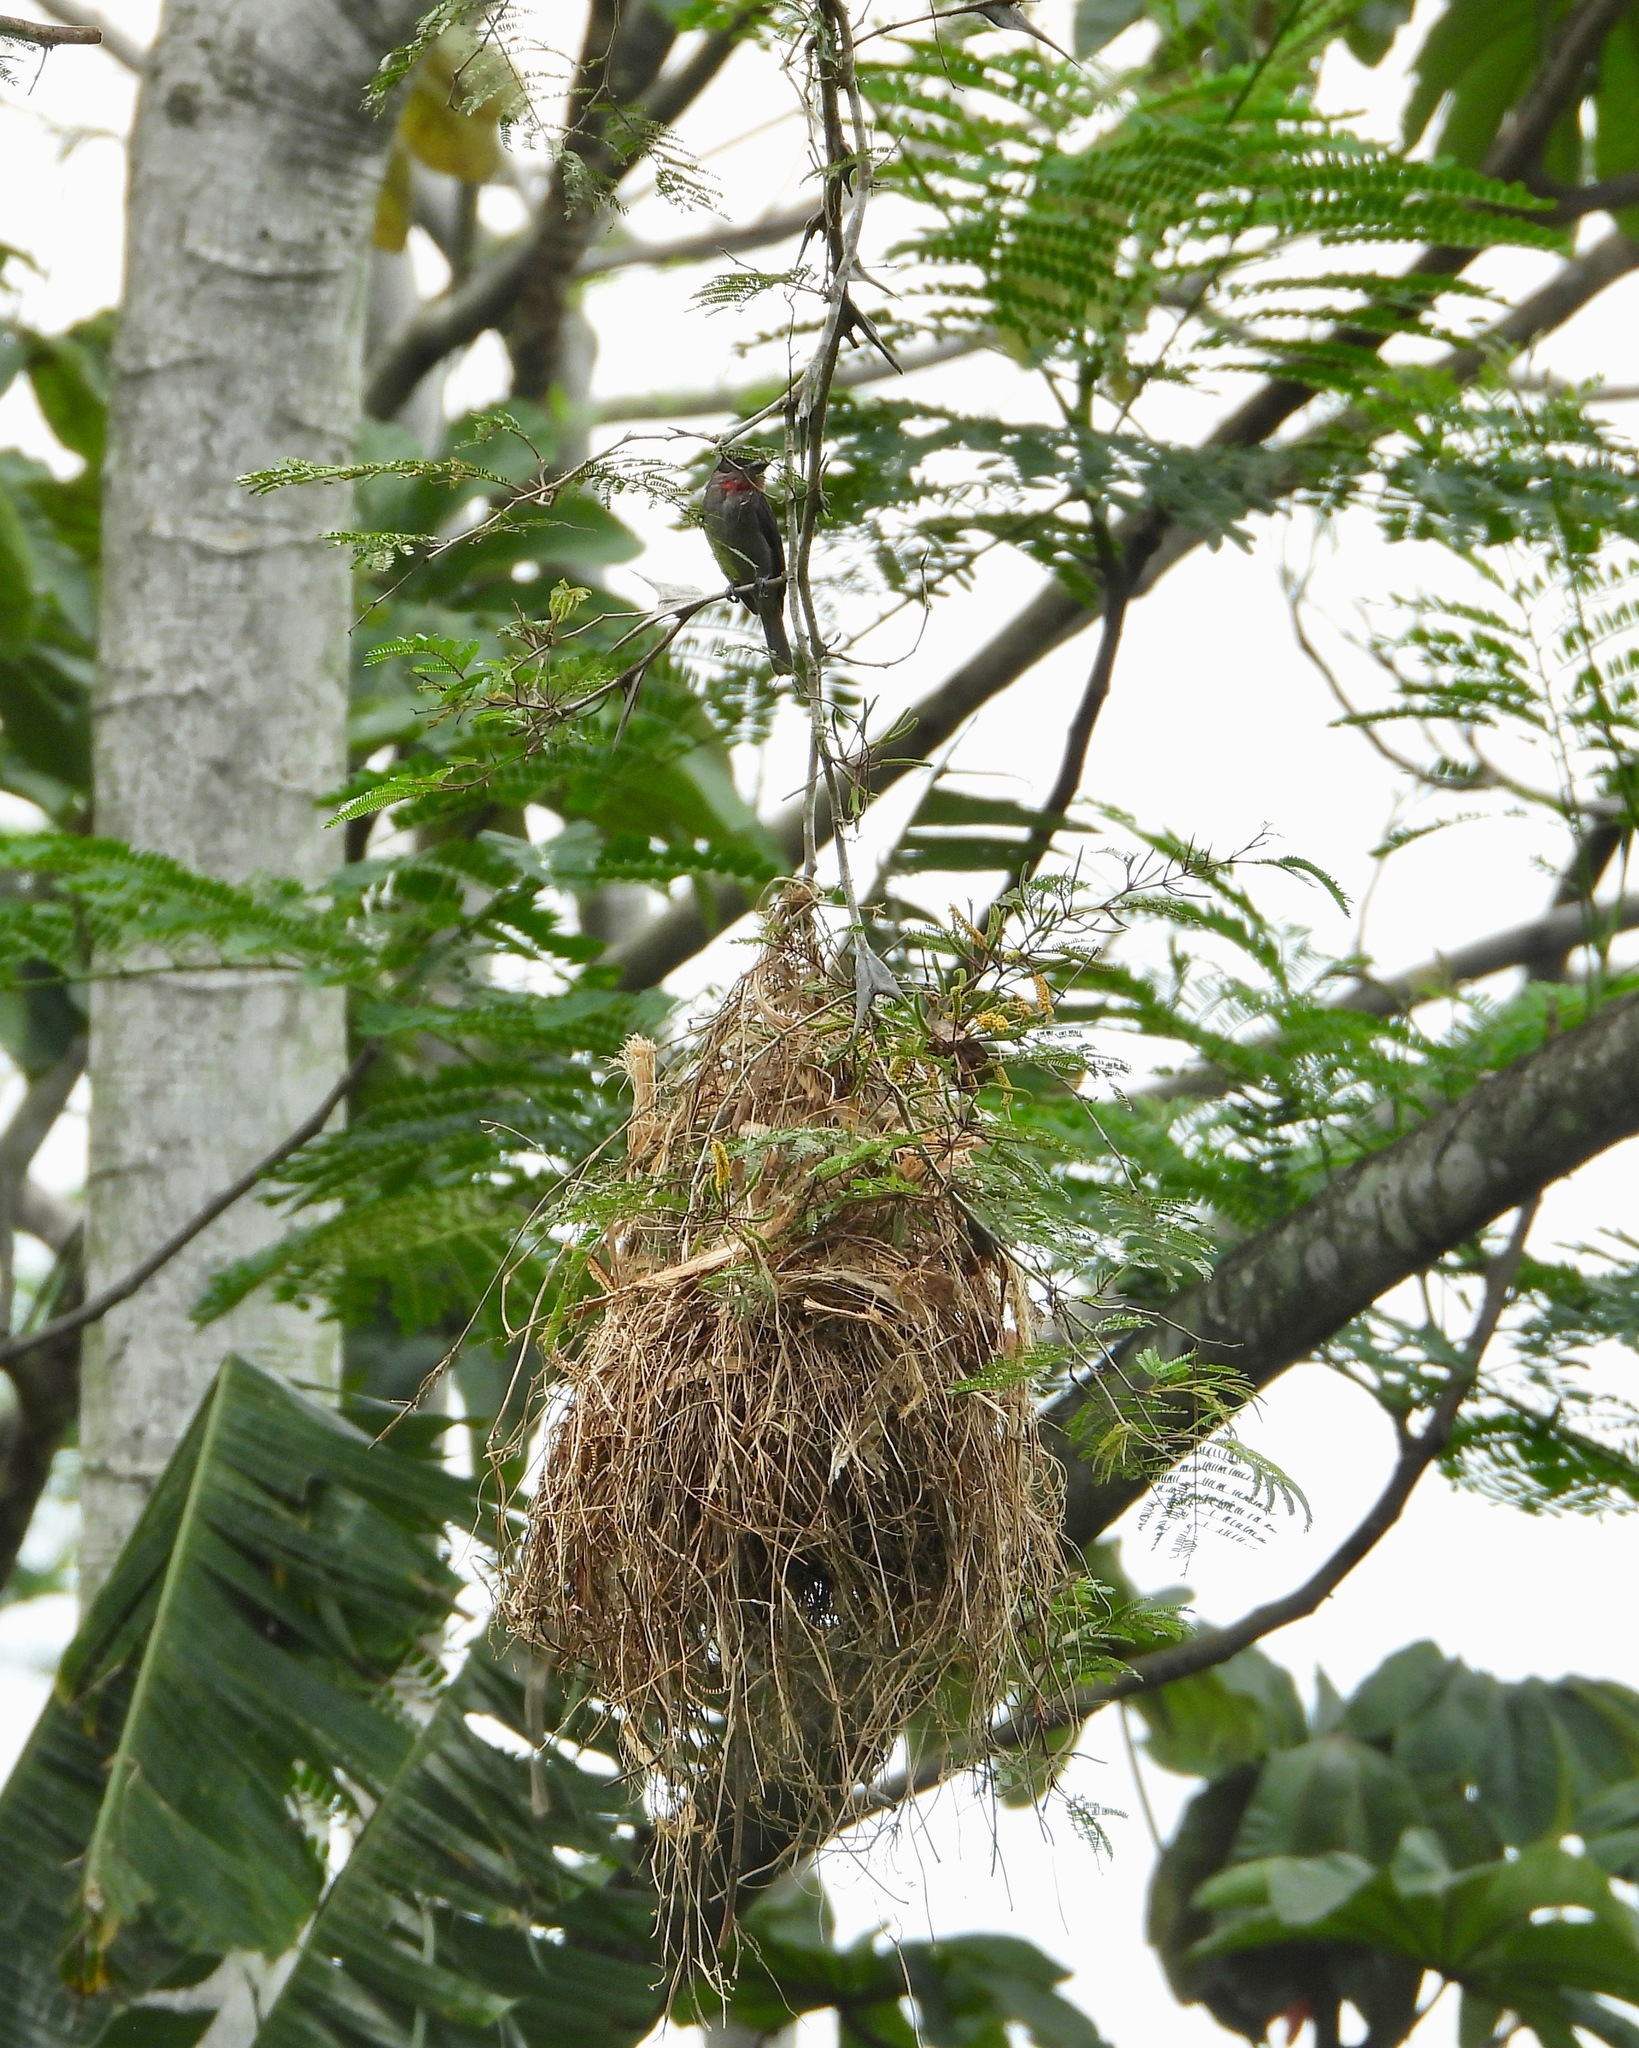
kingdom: Animalia
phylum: Chordata
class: Aves
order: Passeriformes
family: Cotingidae
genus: Pachyramphus
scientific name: Pachyramphus aglaiae
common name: Rose-throated becard
